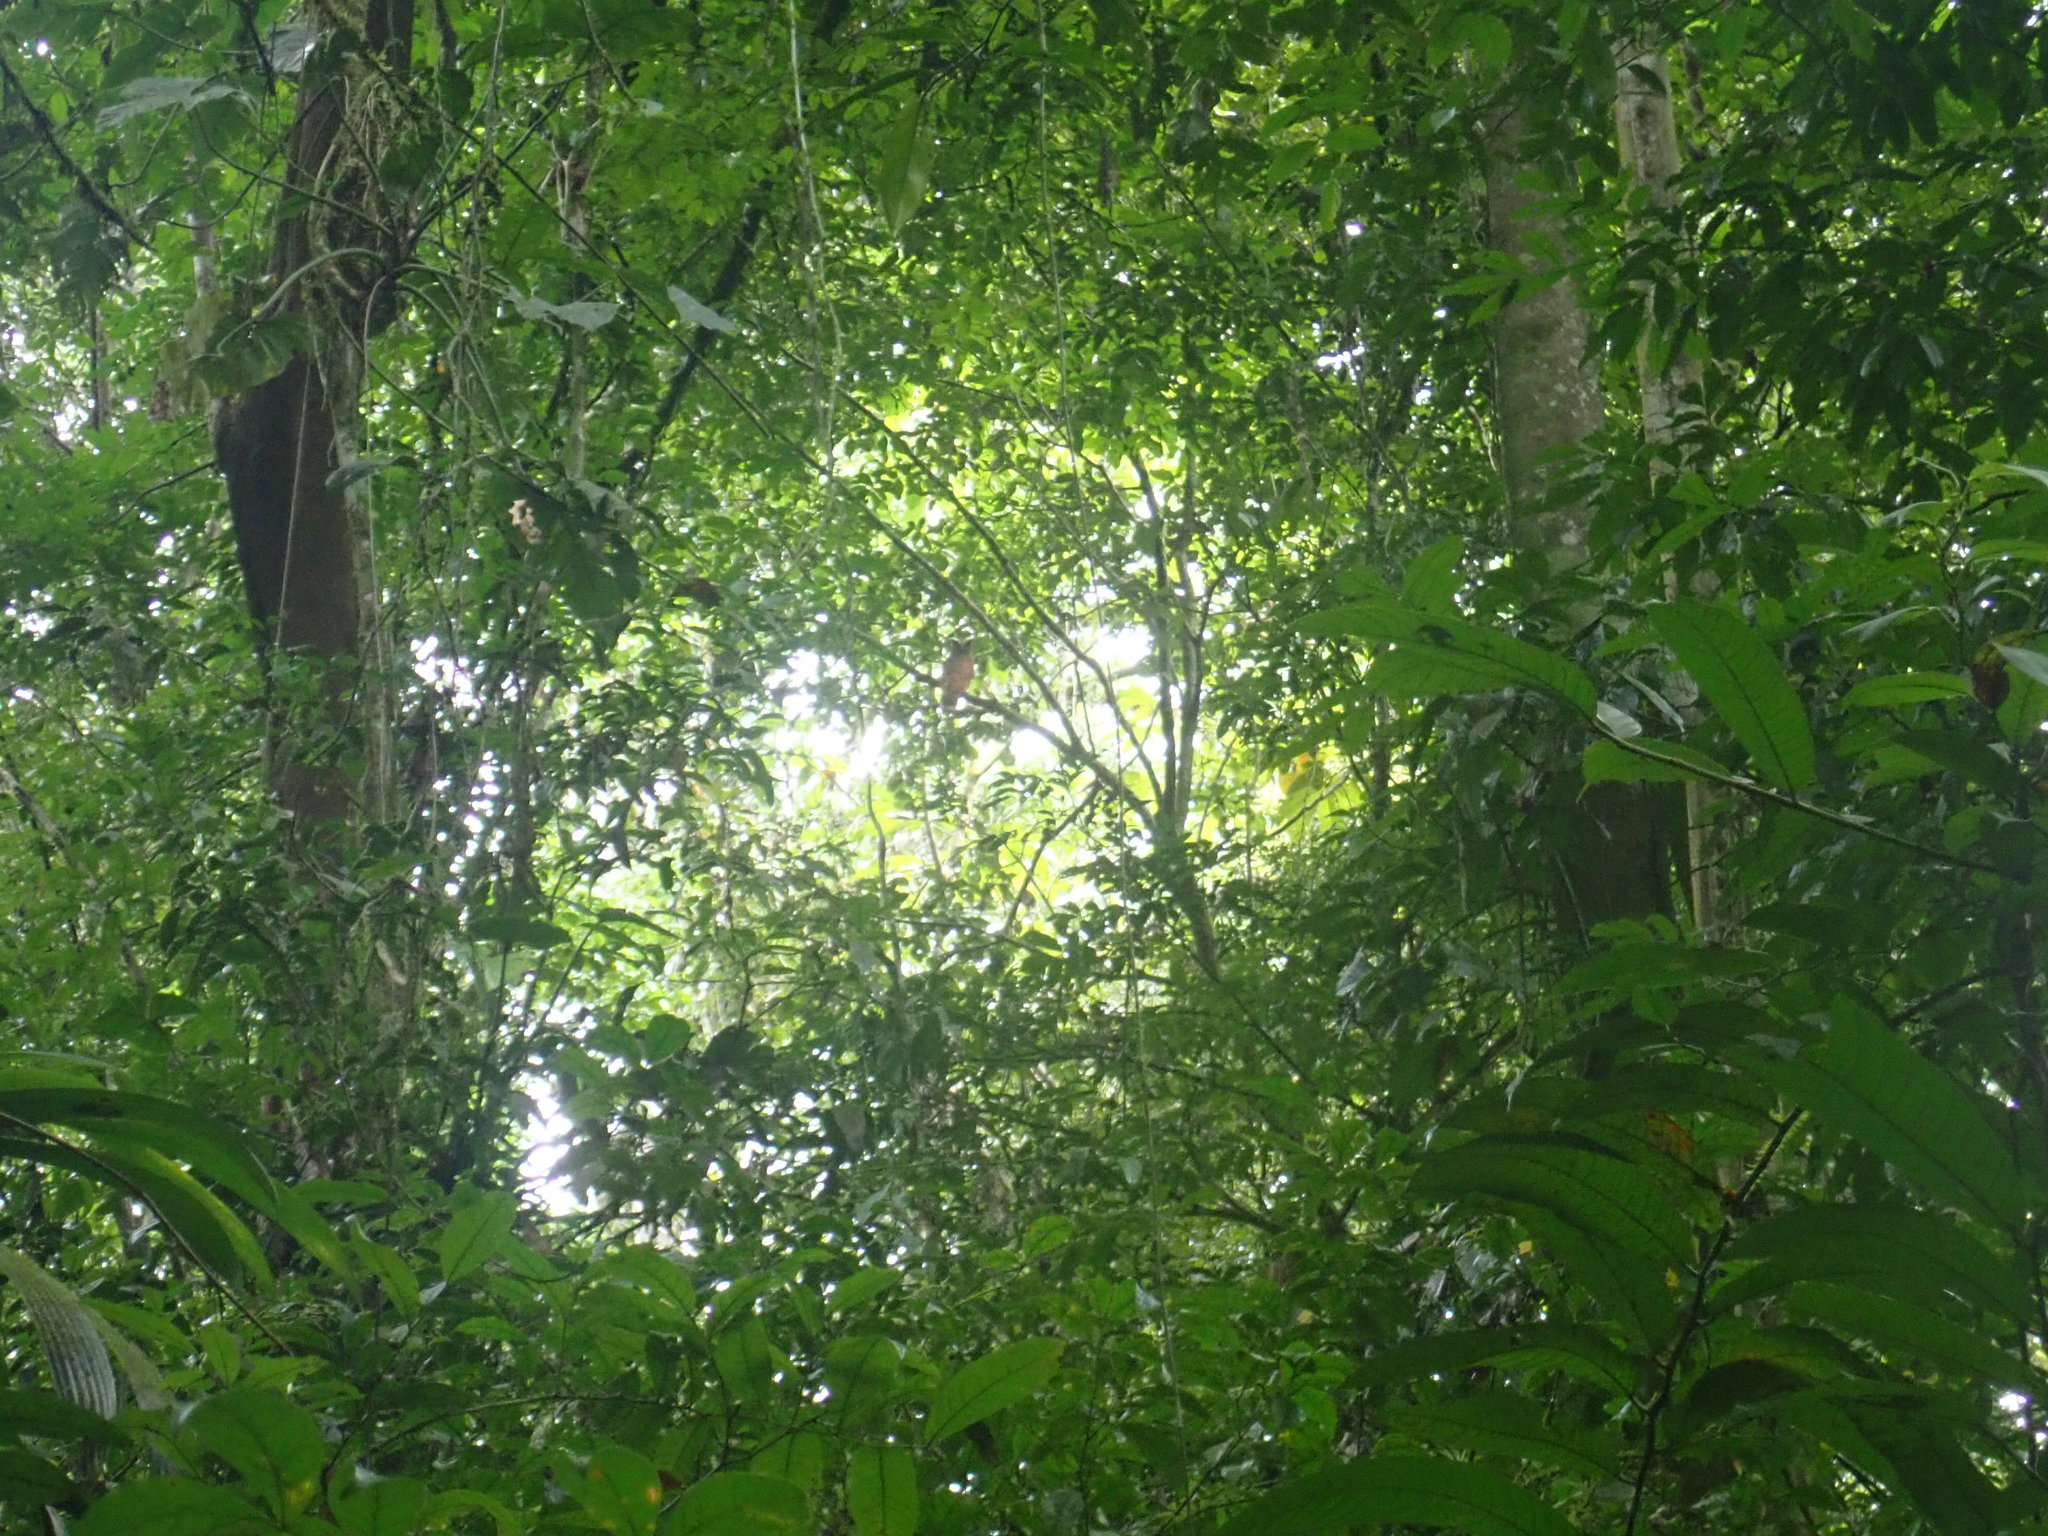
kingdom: Animalia
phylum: Chordata
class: Aves
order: Strigiformes
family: Strigidae
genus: Lophostrix
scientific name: Lophostrix cristata
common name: Crested owl
